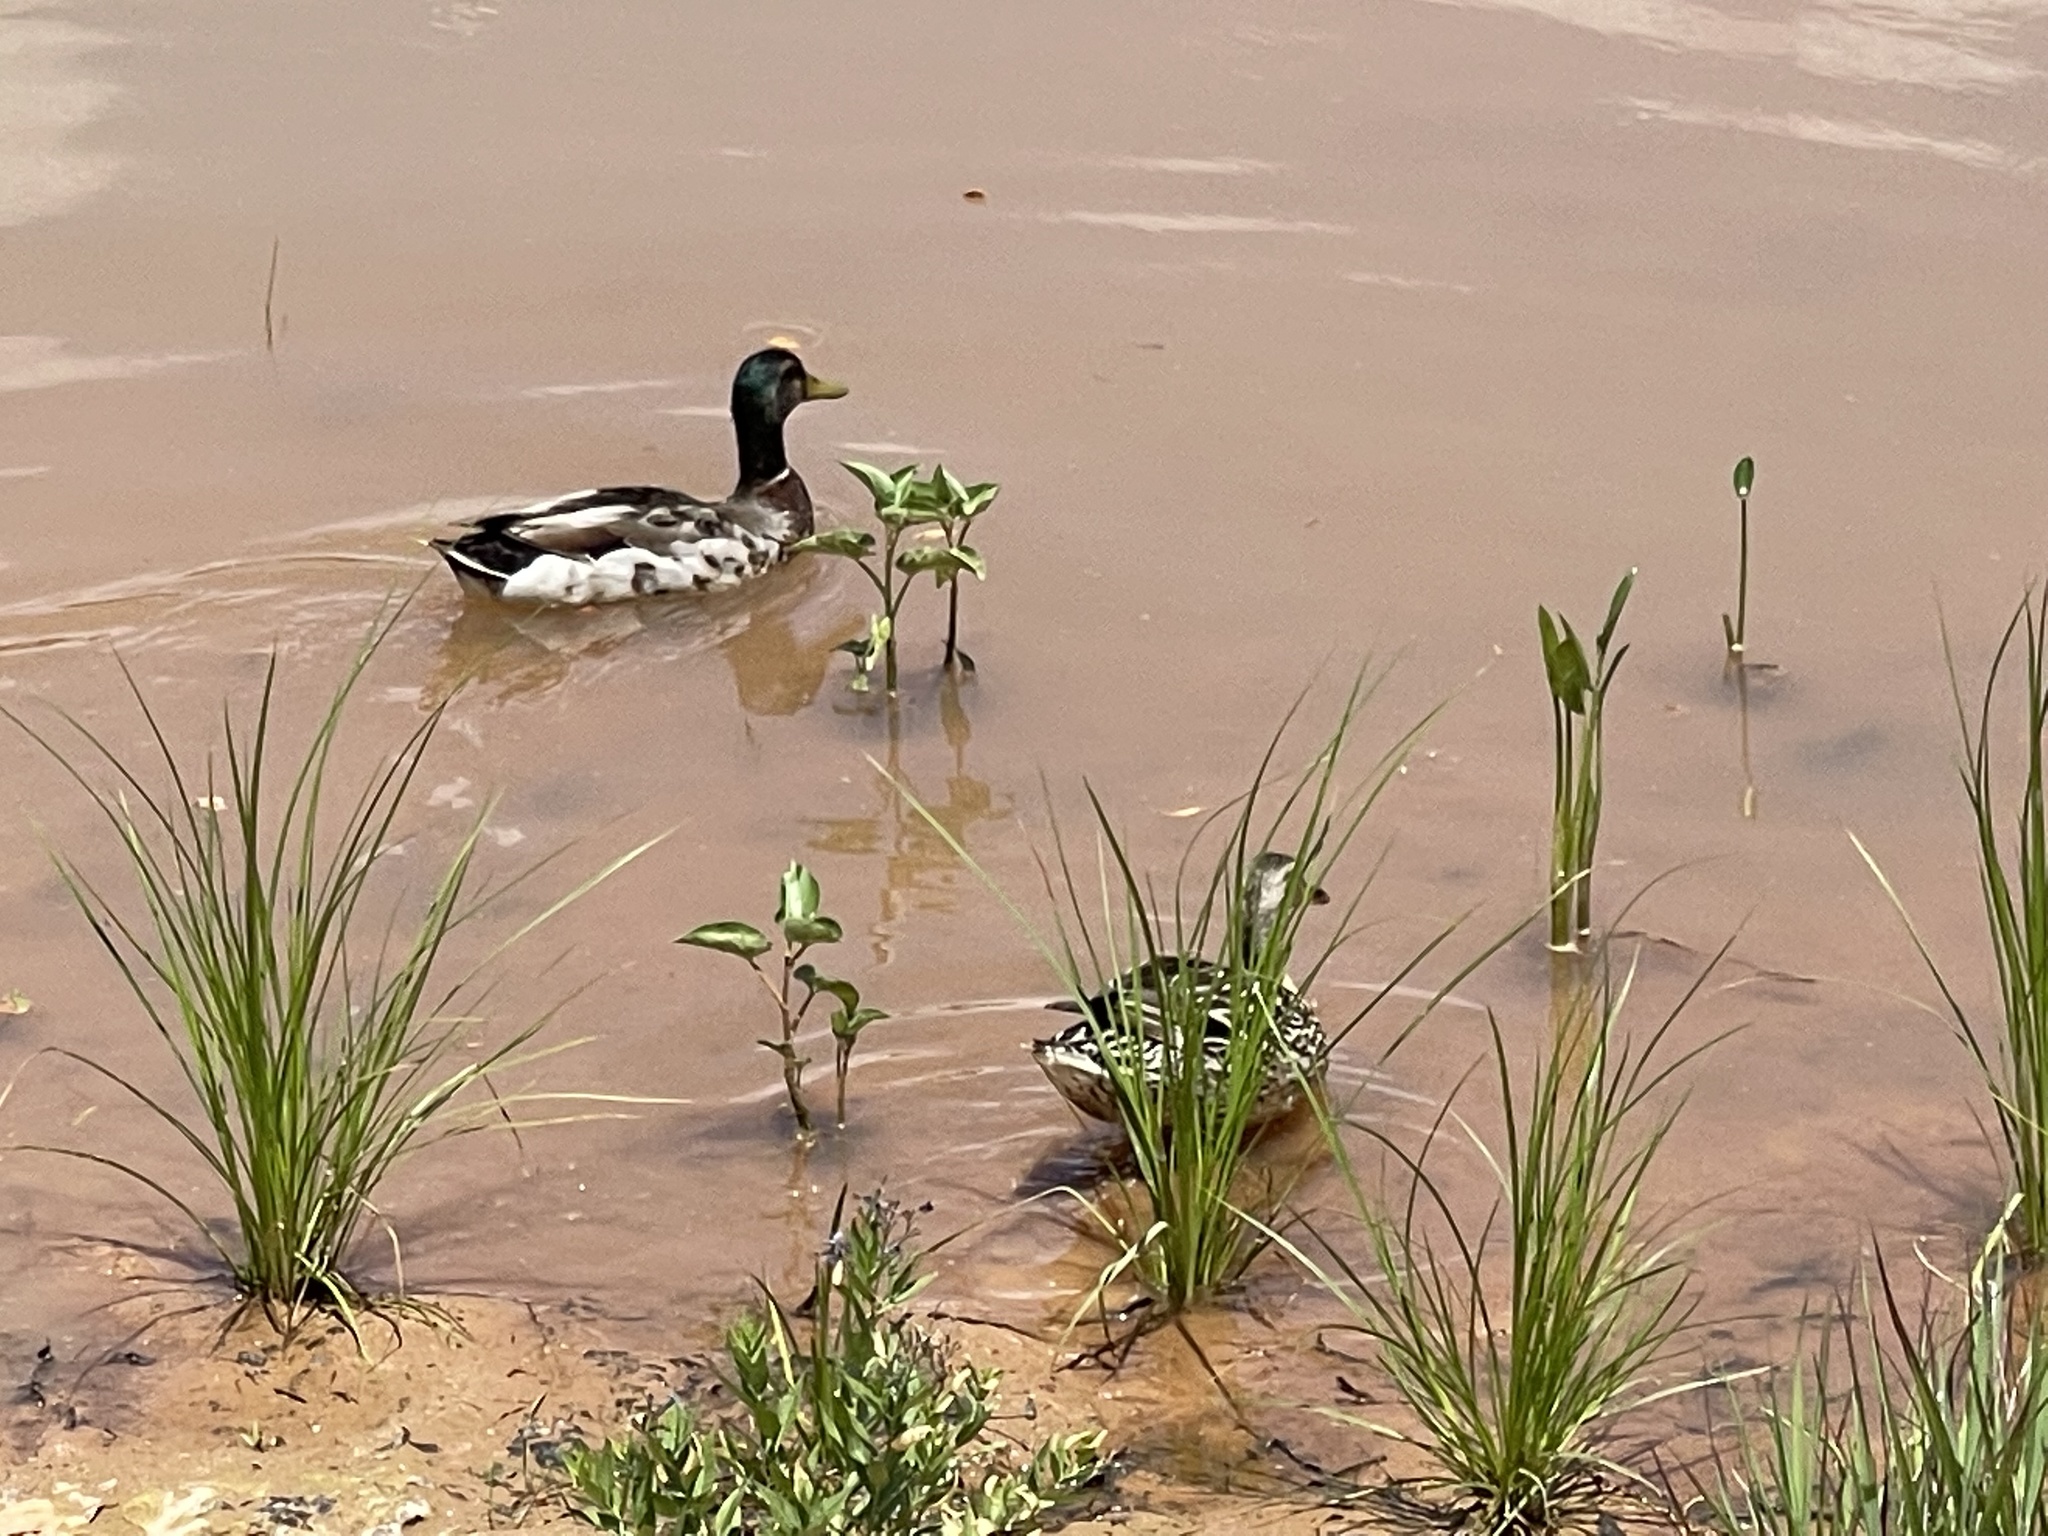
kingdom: Animalia
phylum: Chordata
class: Aves
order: Anseriformes
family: Anatidae
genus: Anas
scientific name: Anas platyrhynchos
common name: Mallard
